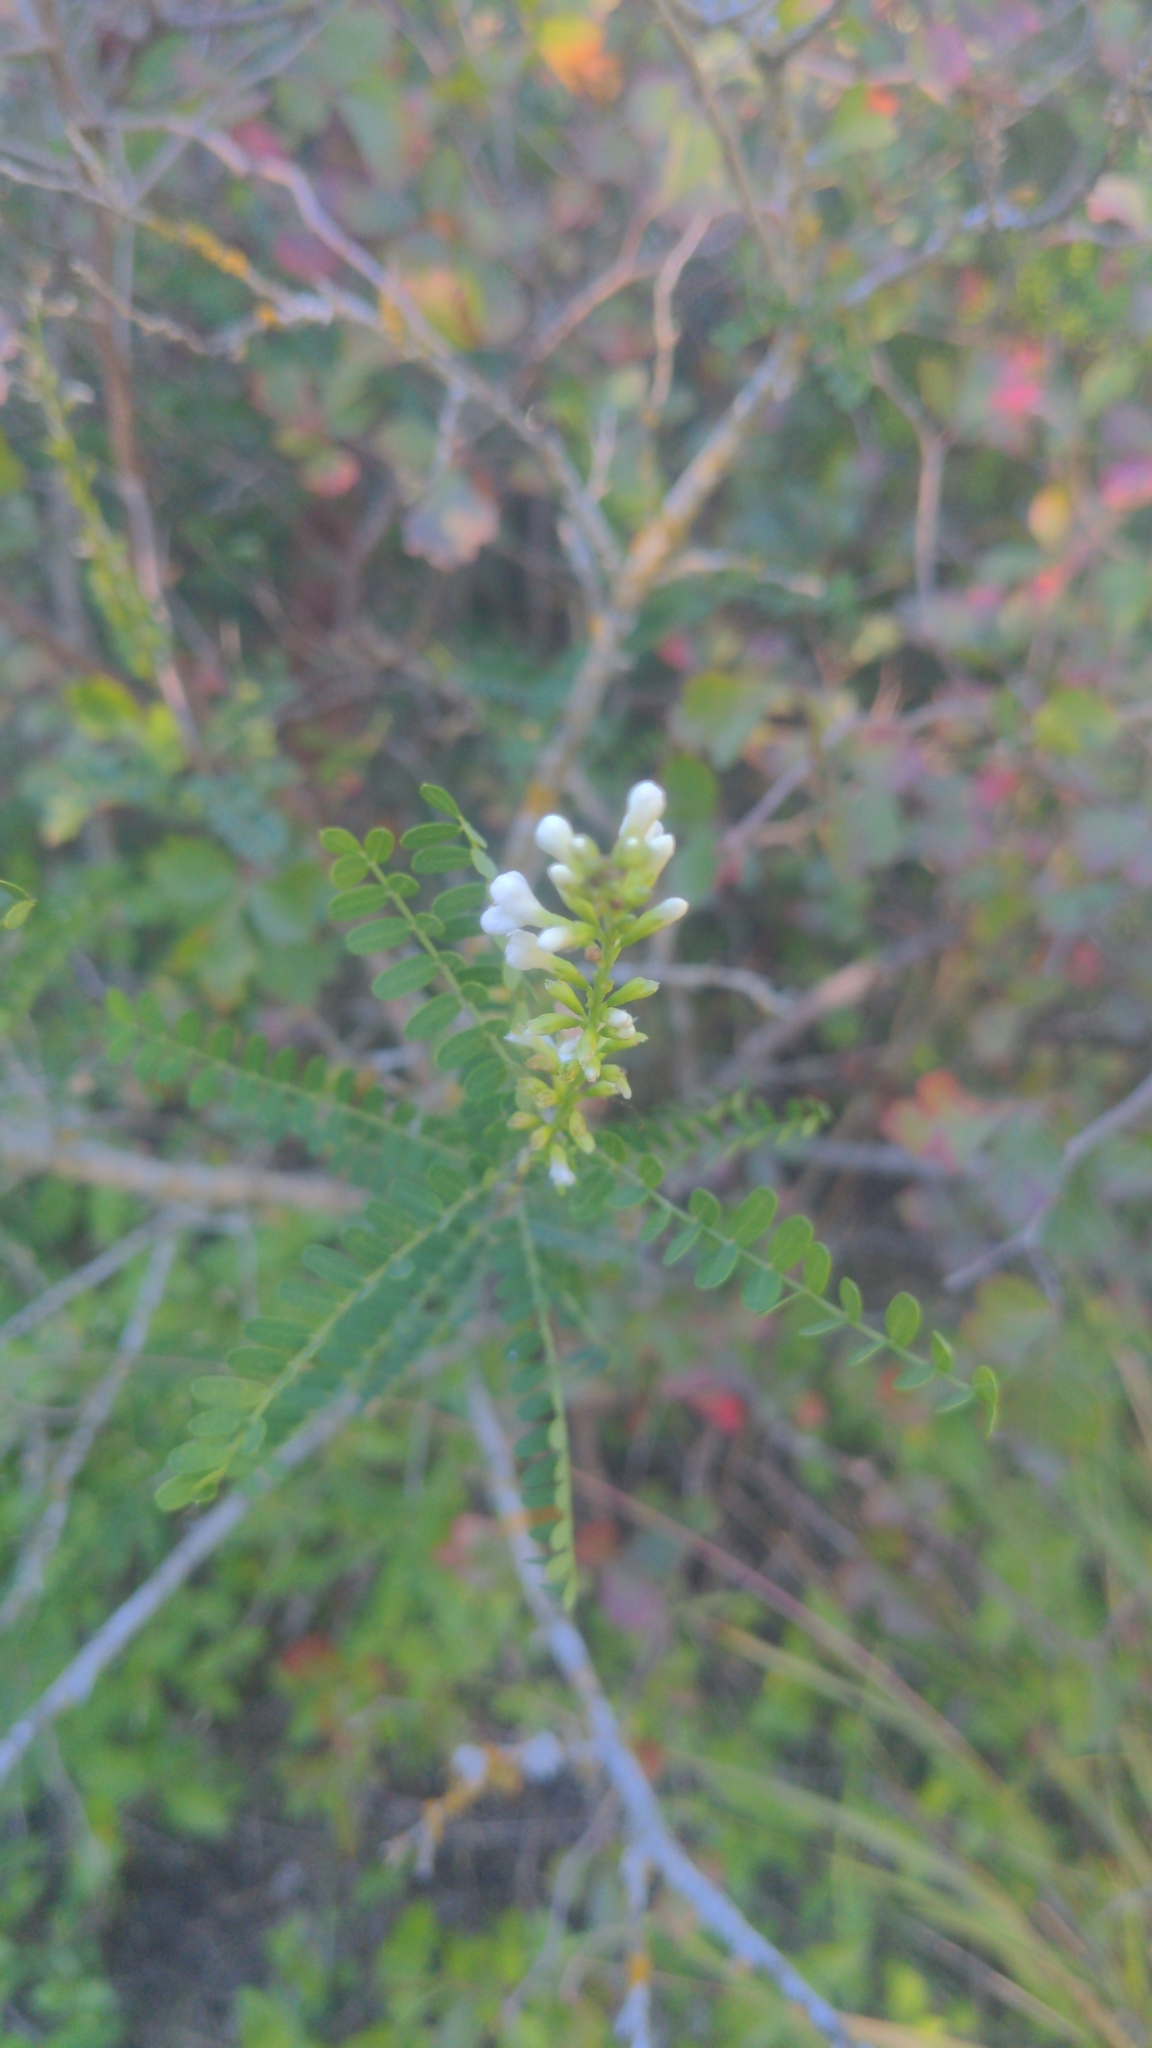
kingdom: Plantae
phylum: Tracheophyta
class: Magnoliopsida
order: Fabales
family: Fabaceae
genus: Eysenhardtia
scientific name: Eysenhardtia texana
